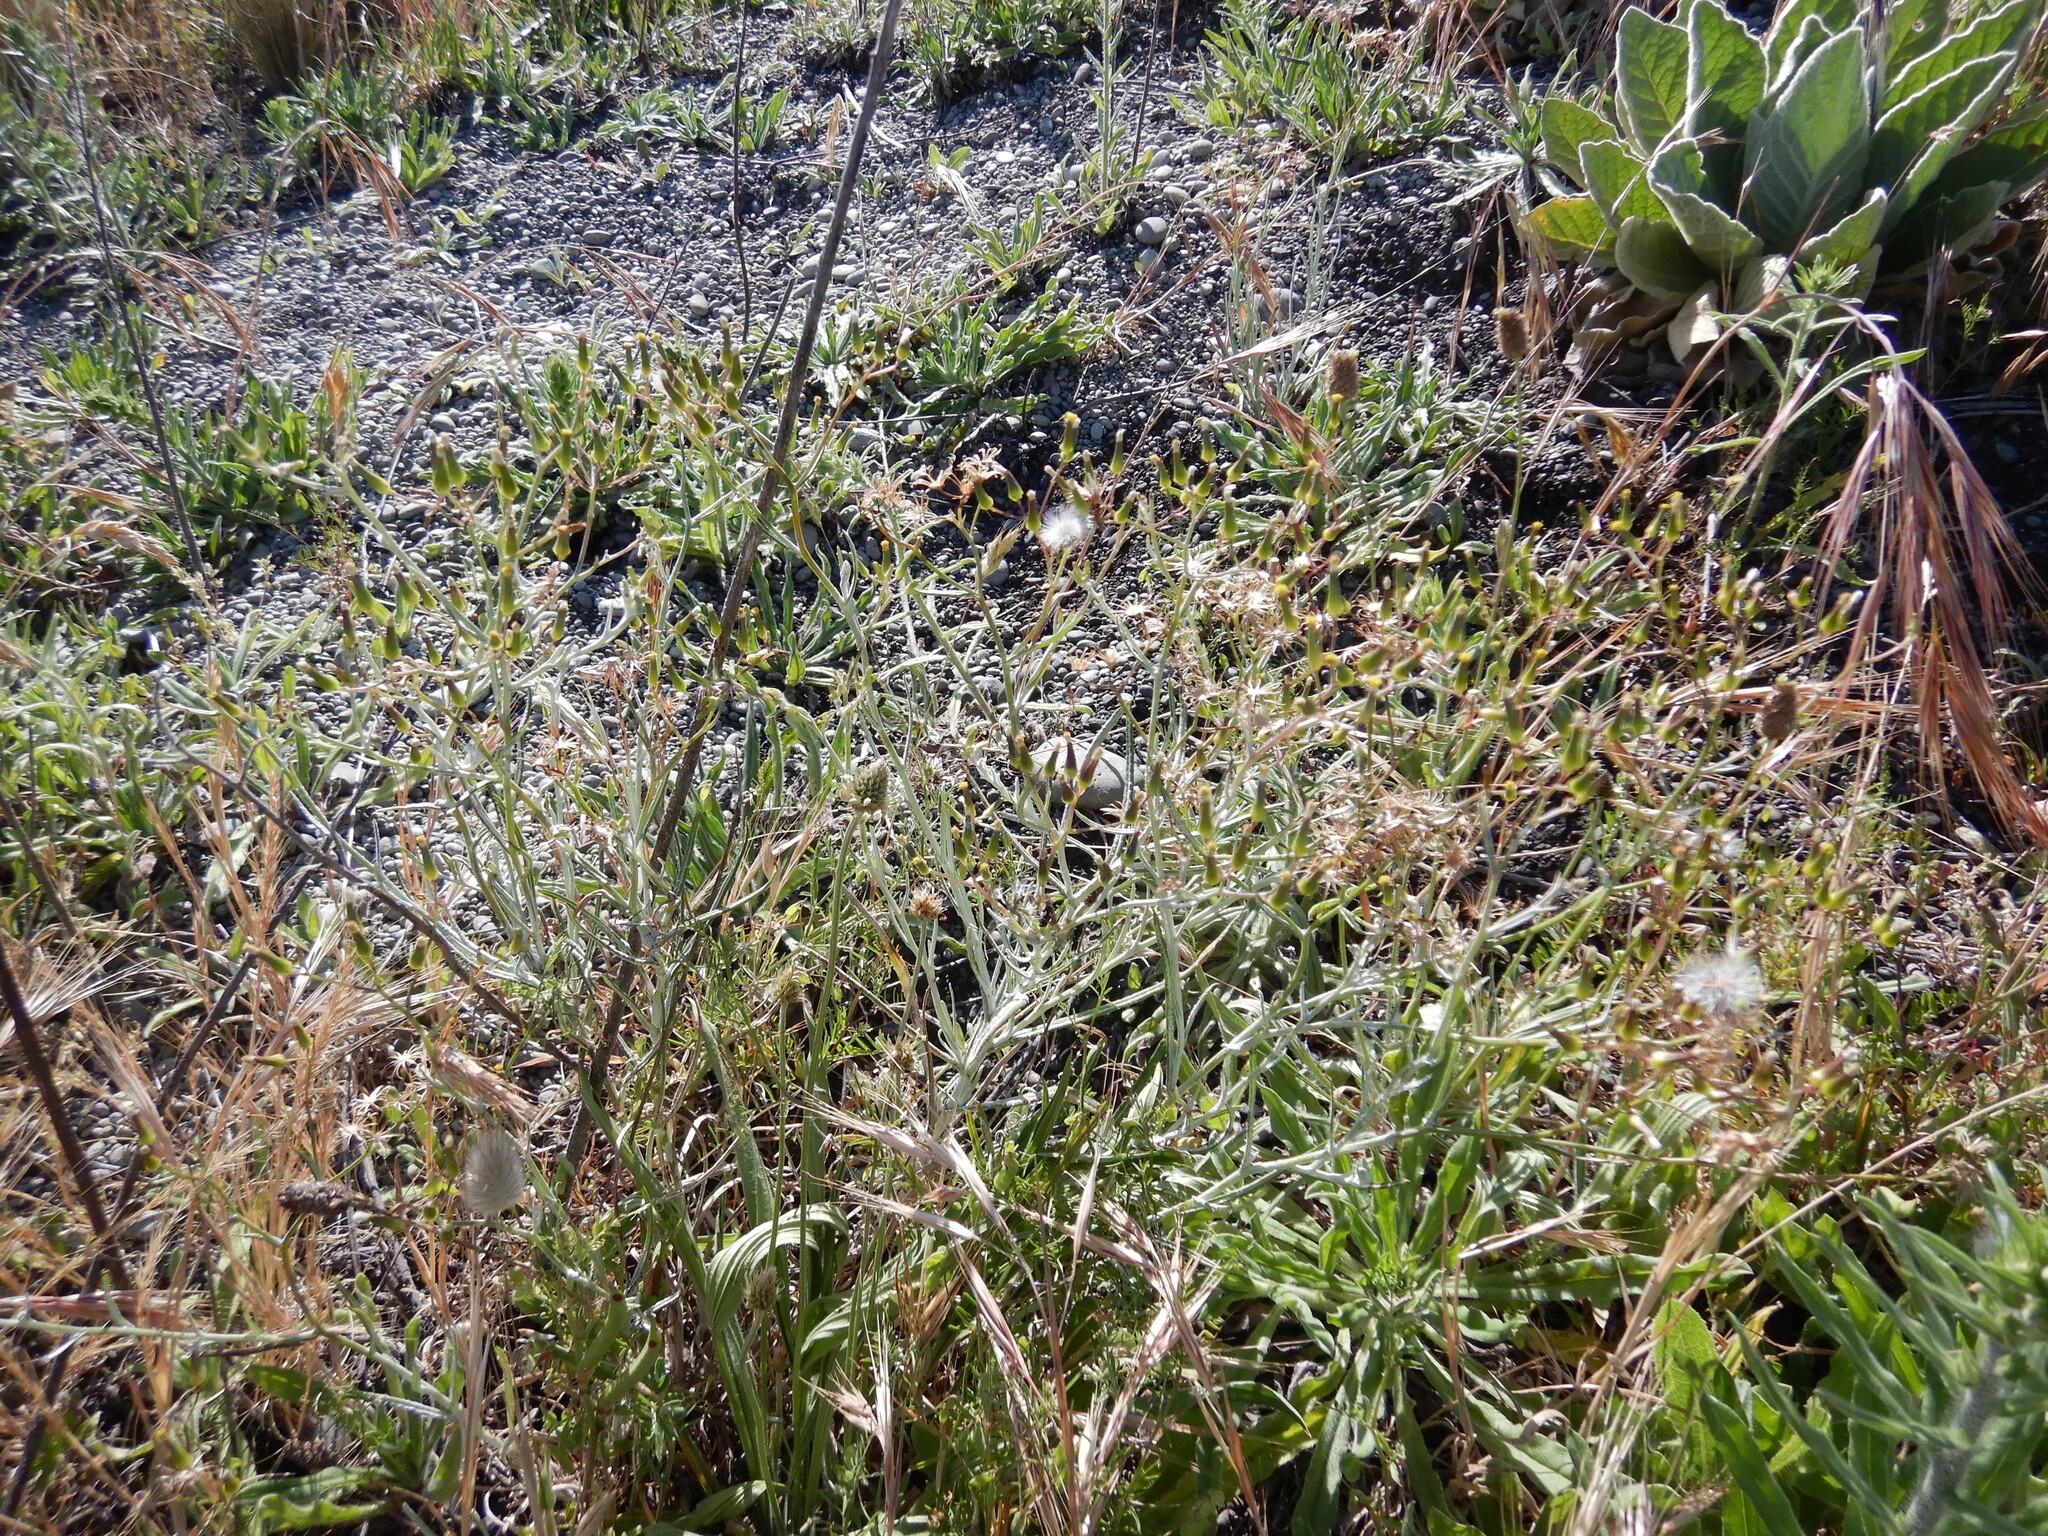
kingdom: Plantae
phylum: Tracheophyta
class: Magnoliopsida
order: Asterales
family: Asteraceae
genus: Senecio
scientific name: Senecio quadridentatus
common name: Cotton fireweed
